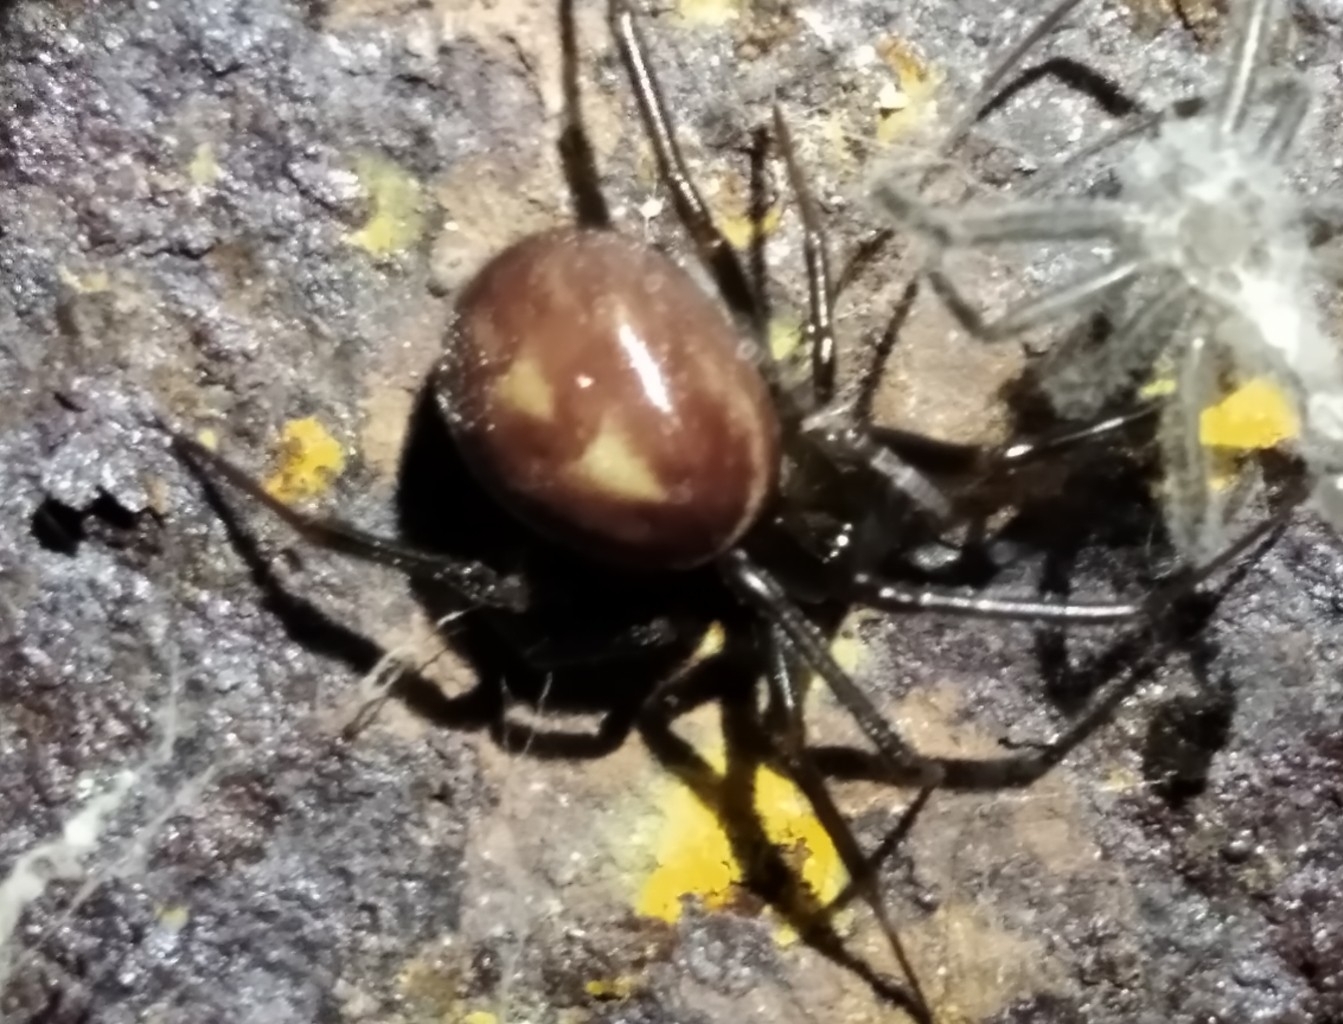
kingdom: Animalia
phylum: Arthropoda
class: Arachnida
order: Araneae
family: Theridiidae
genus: Steatoda
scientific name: Steatoda grossa
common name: False black widow
